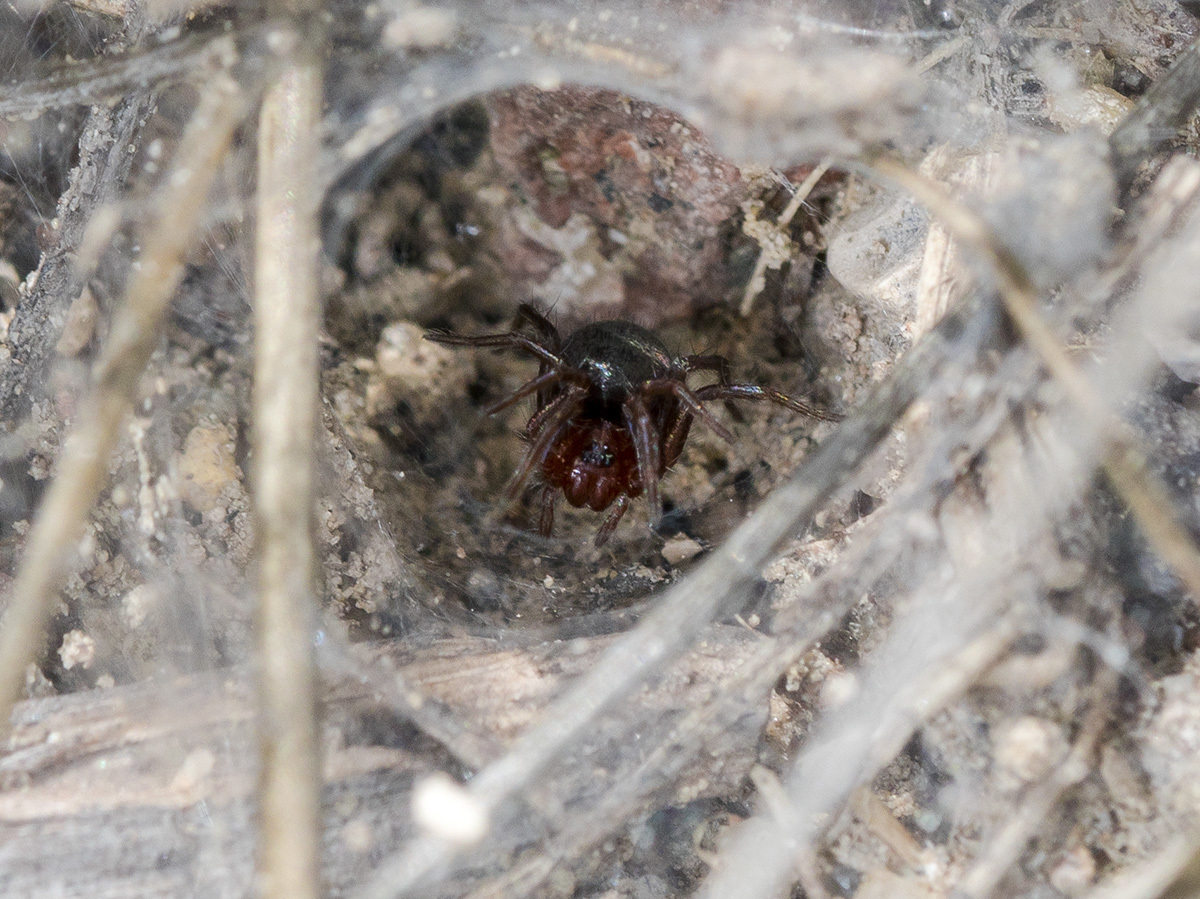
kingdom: Animalia
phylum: Arthropoda
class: Arachnida
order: Araneae
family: Agelenidae
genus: Agelena
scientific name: Agelena labyrinthica
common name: Labyrinth spider
